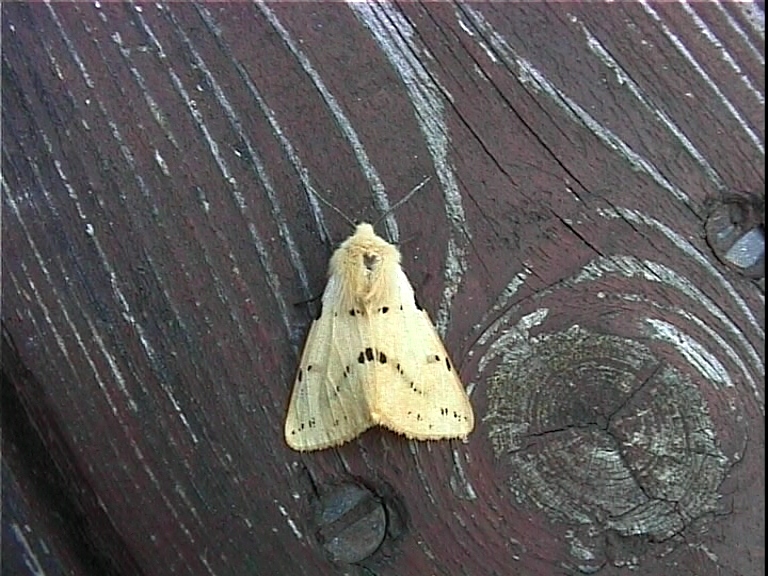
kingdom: Animalia
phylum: Arthropoda
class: Insecta
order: Lepidoptera
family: Erebidae
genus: Spilarctia
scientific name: Spilarctia lutea
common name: Buff ermine
